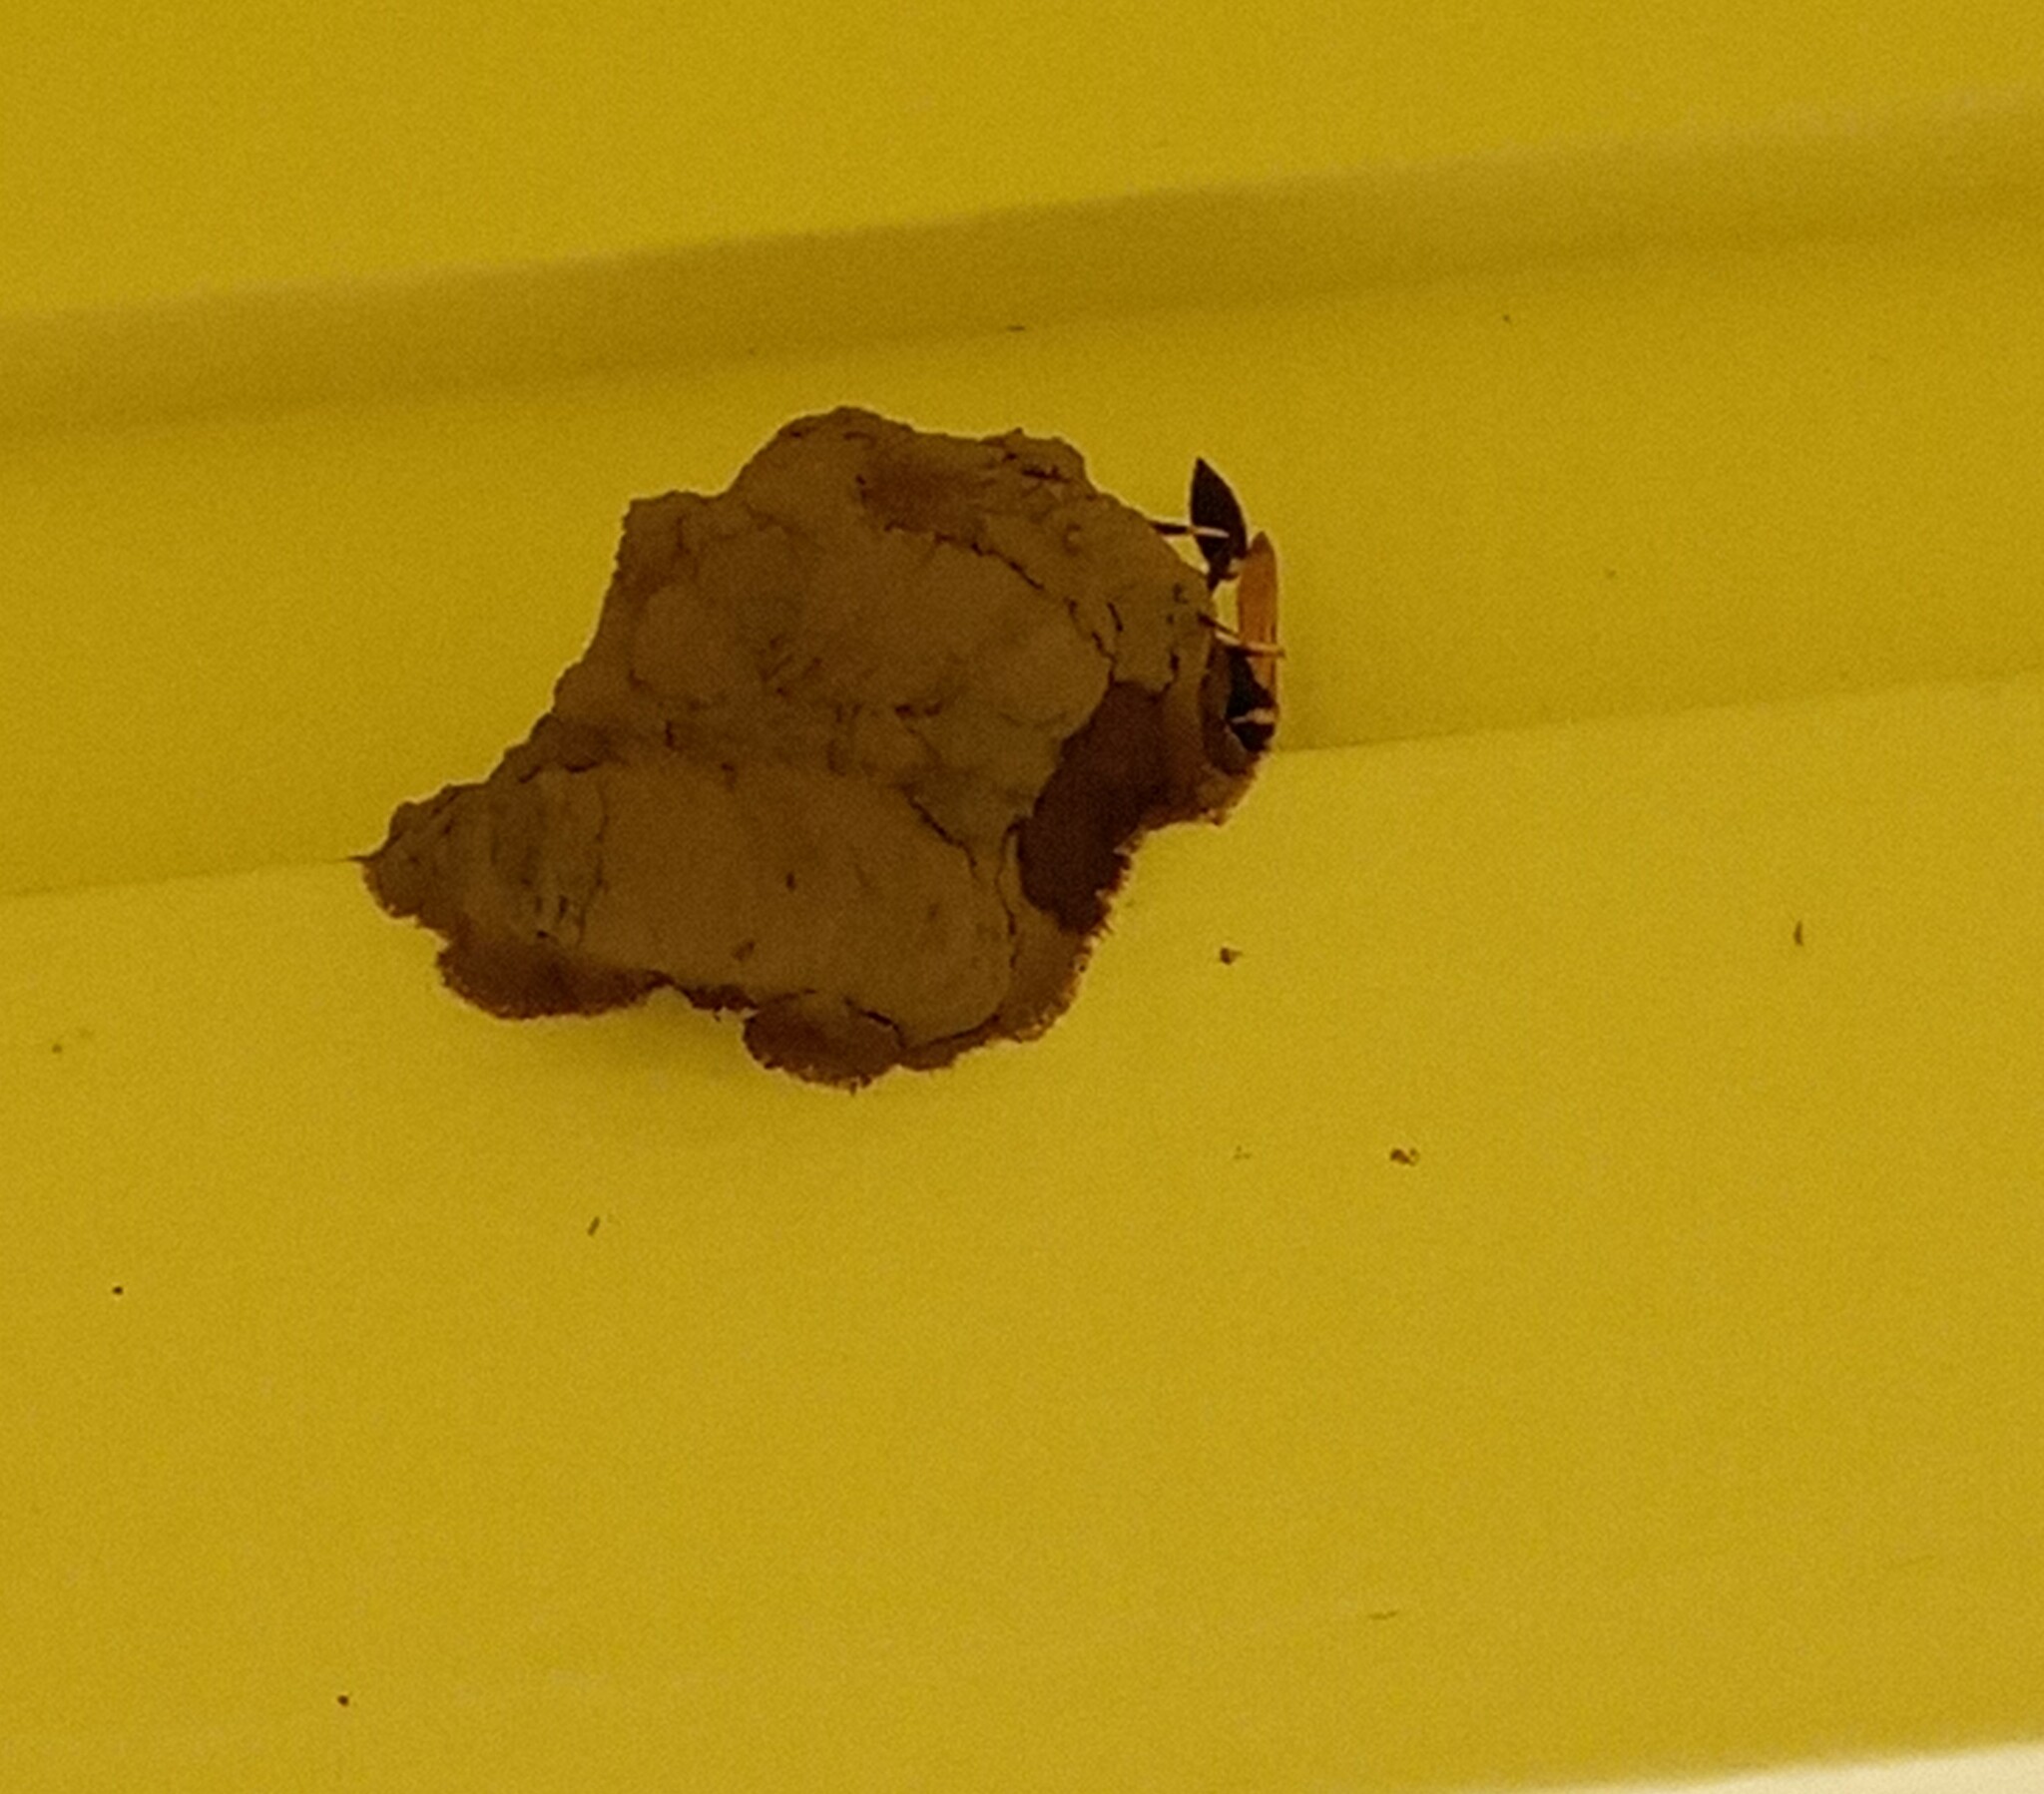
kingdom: Animalia
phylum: Arthropoda
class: Insecta
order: Hymenoptera
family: Sphecidae
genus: Sceliphron
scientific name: Sceliphron caementarium
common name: Mud dauber
